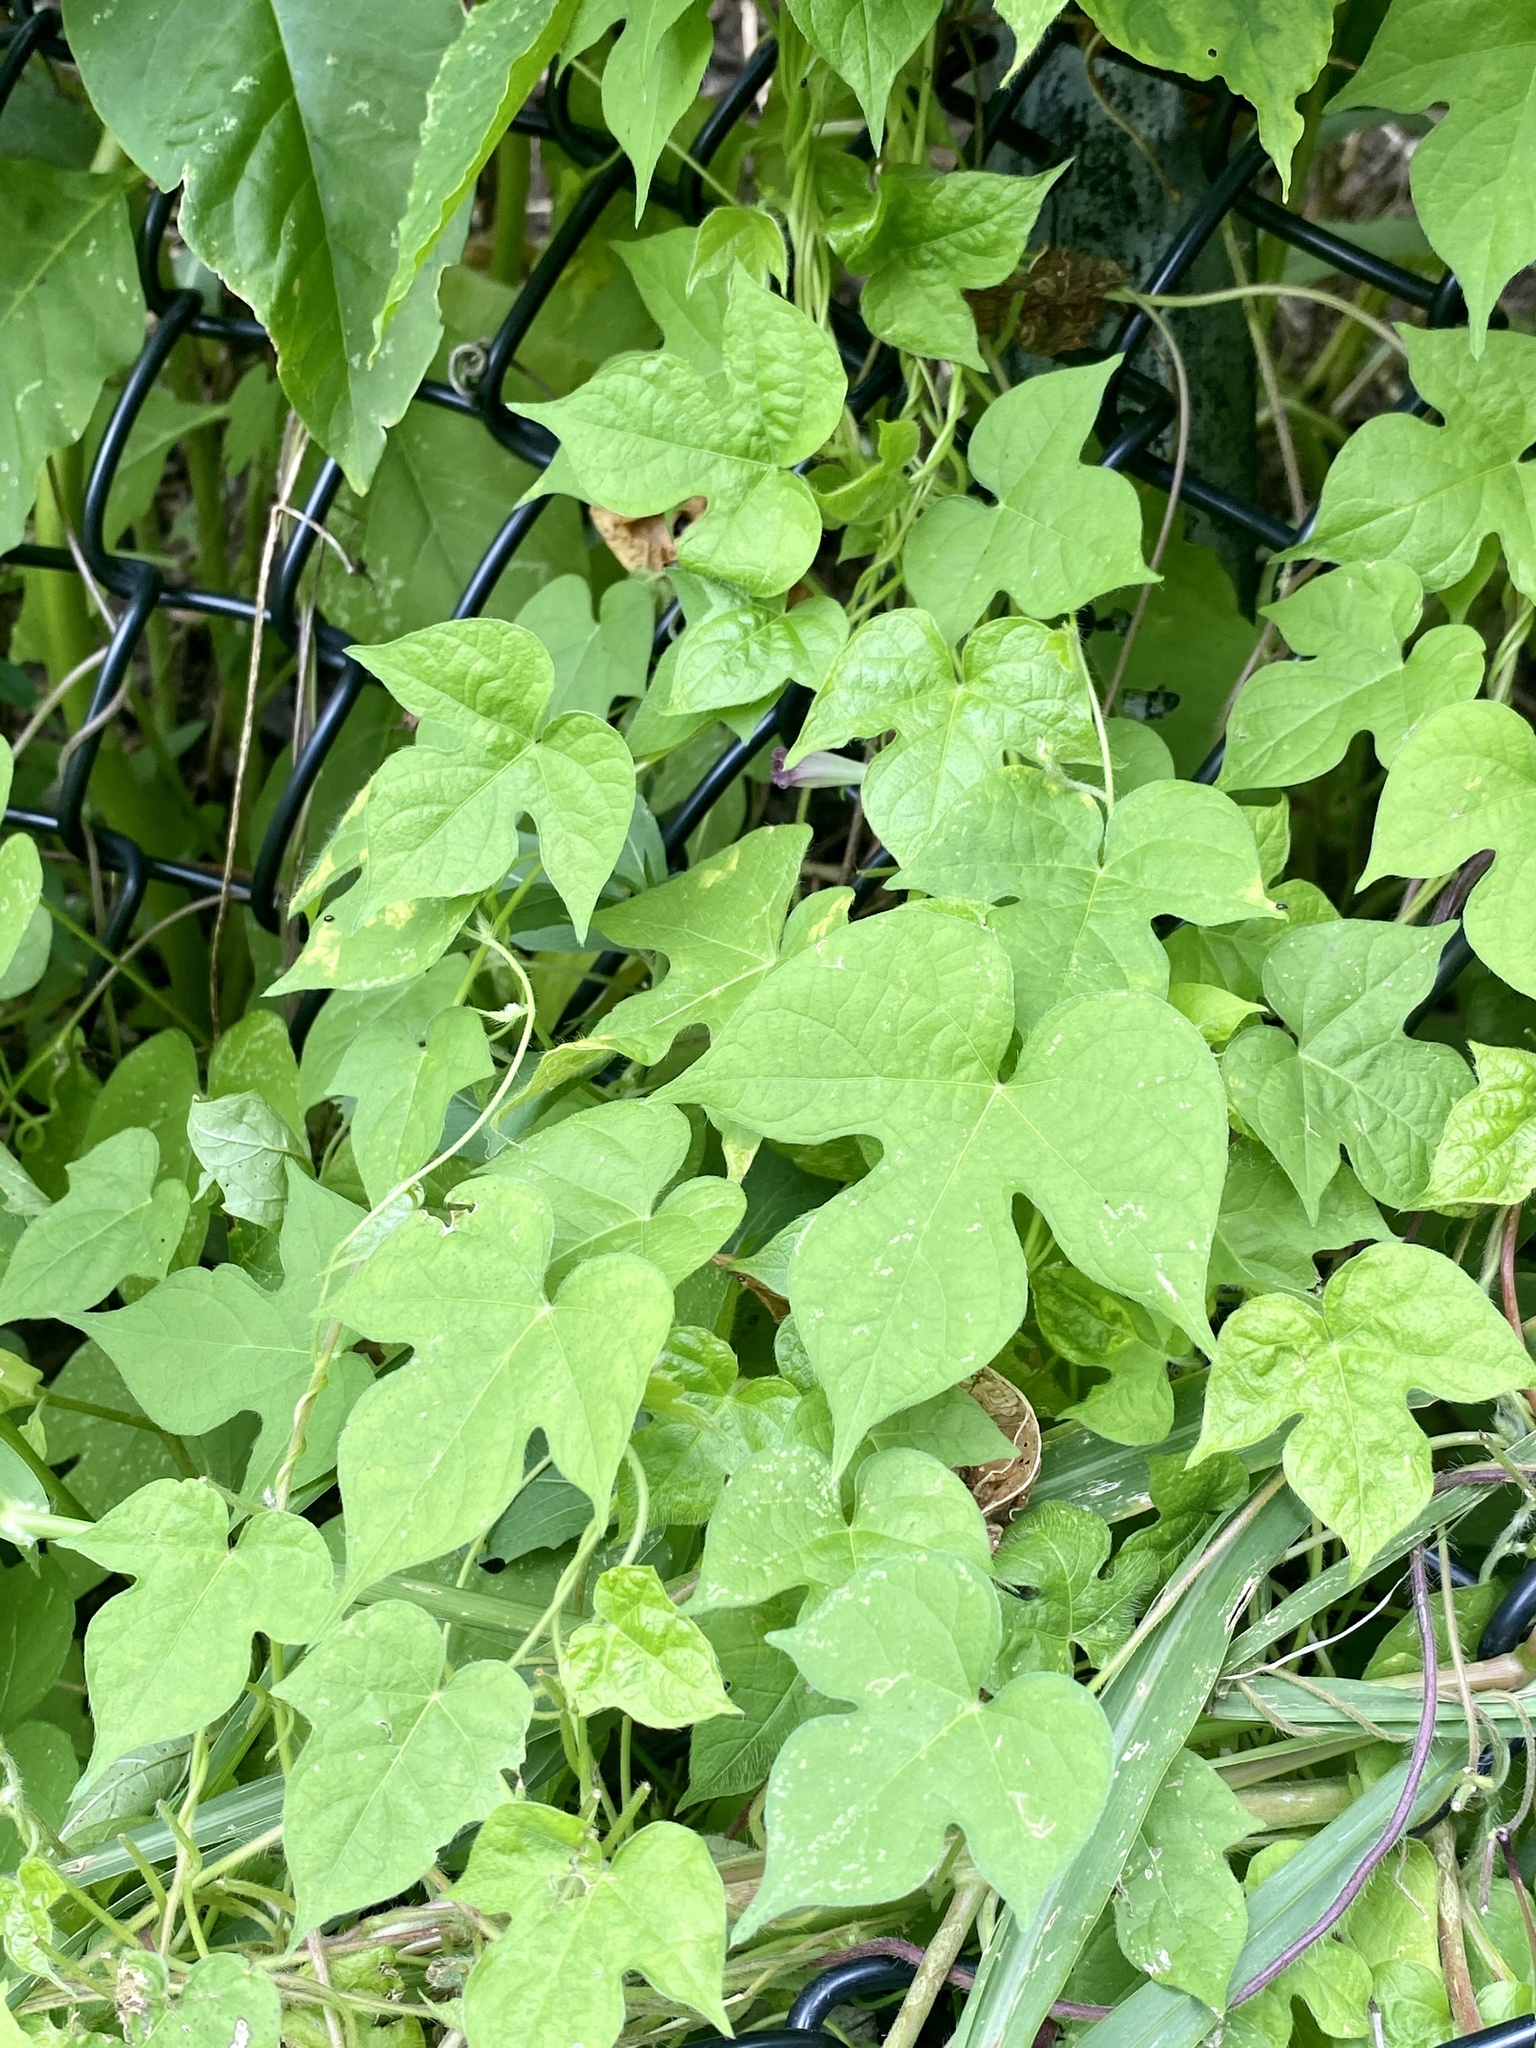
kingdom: Plantae
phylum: Tracheophyta
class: Magnoliopsida
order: Solanales
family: Convolvulaceae
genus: Ipomoea
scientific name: Ipomoea hederacea
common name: Ivy-leaved morning-glory
